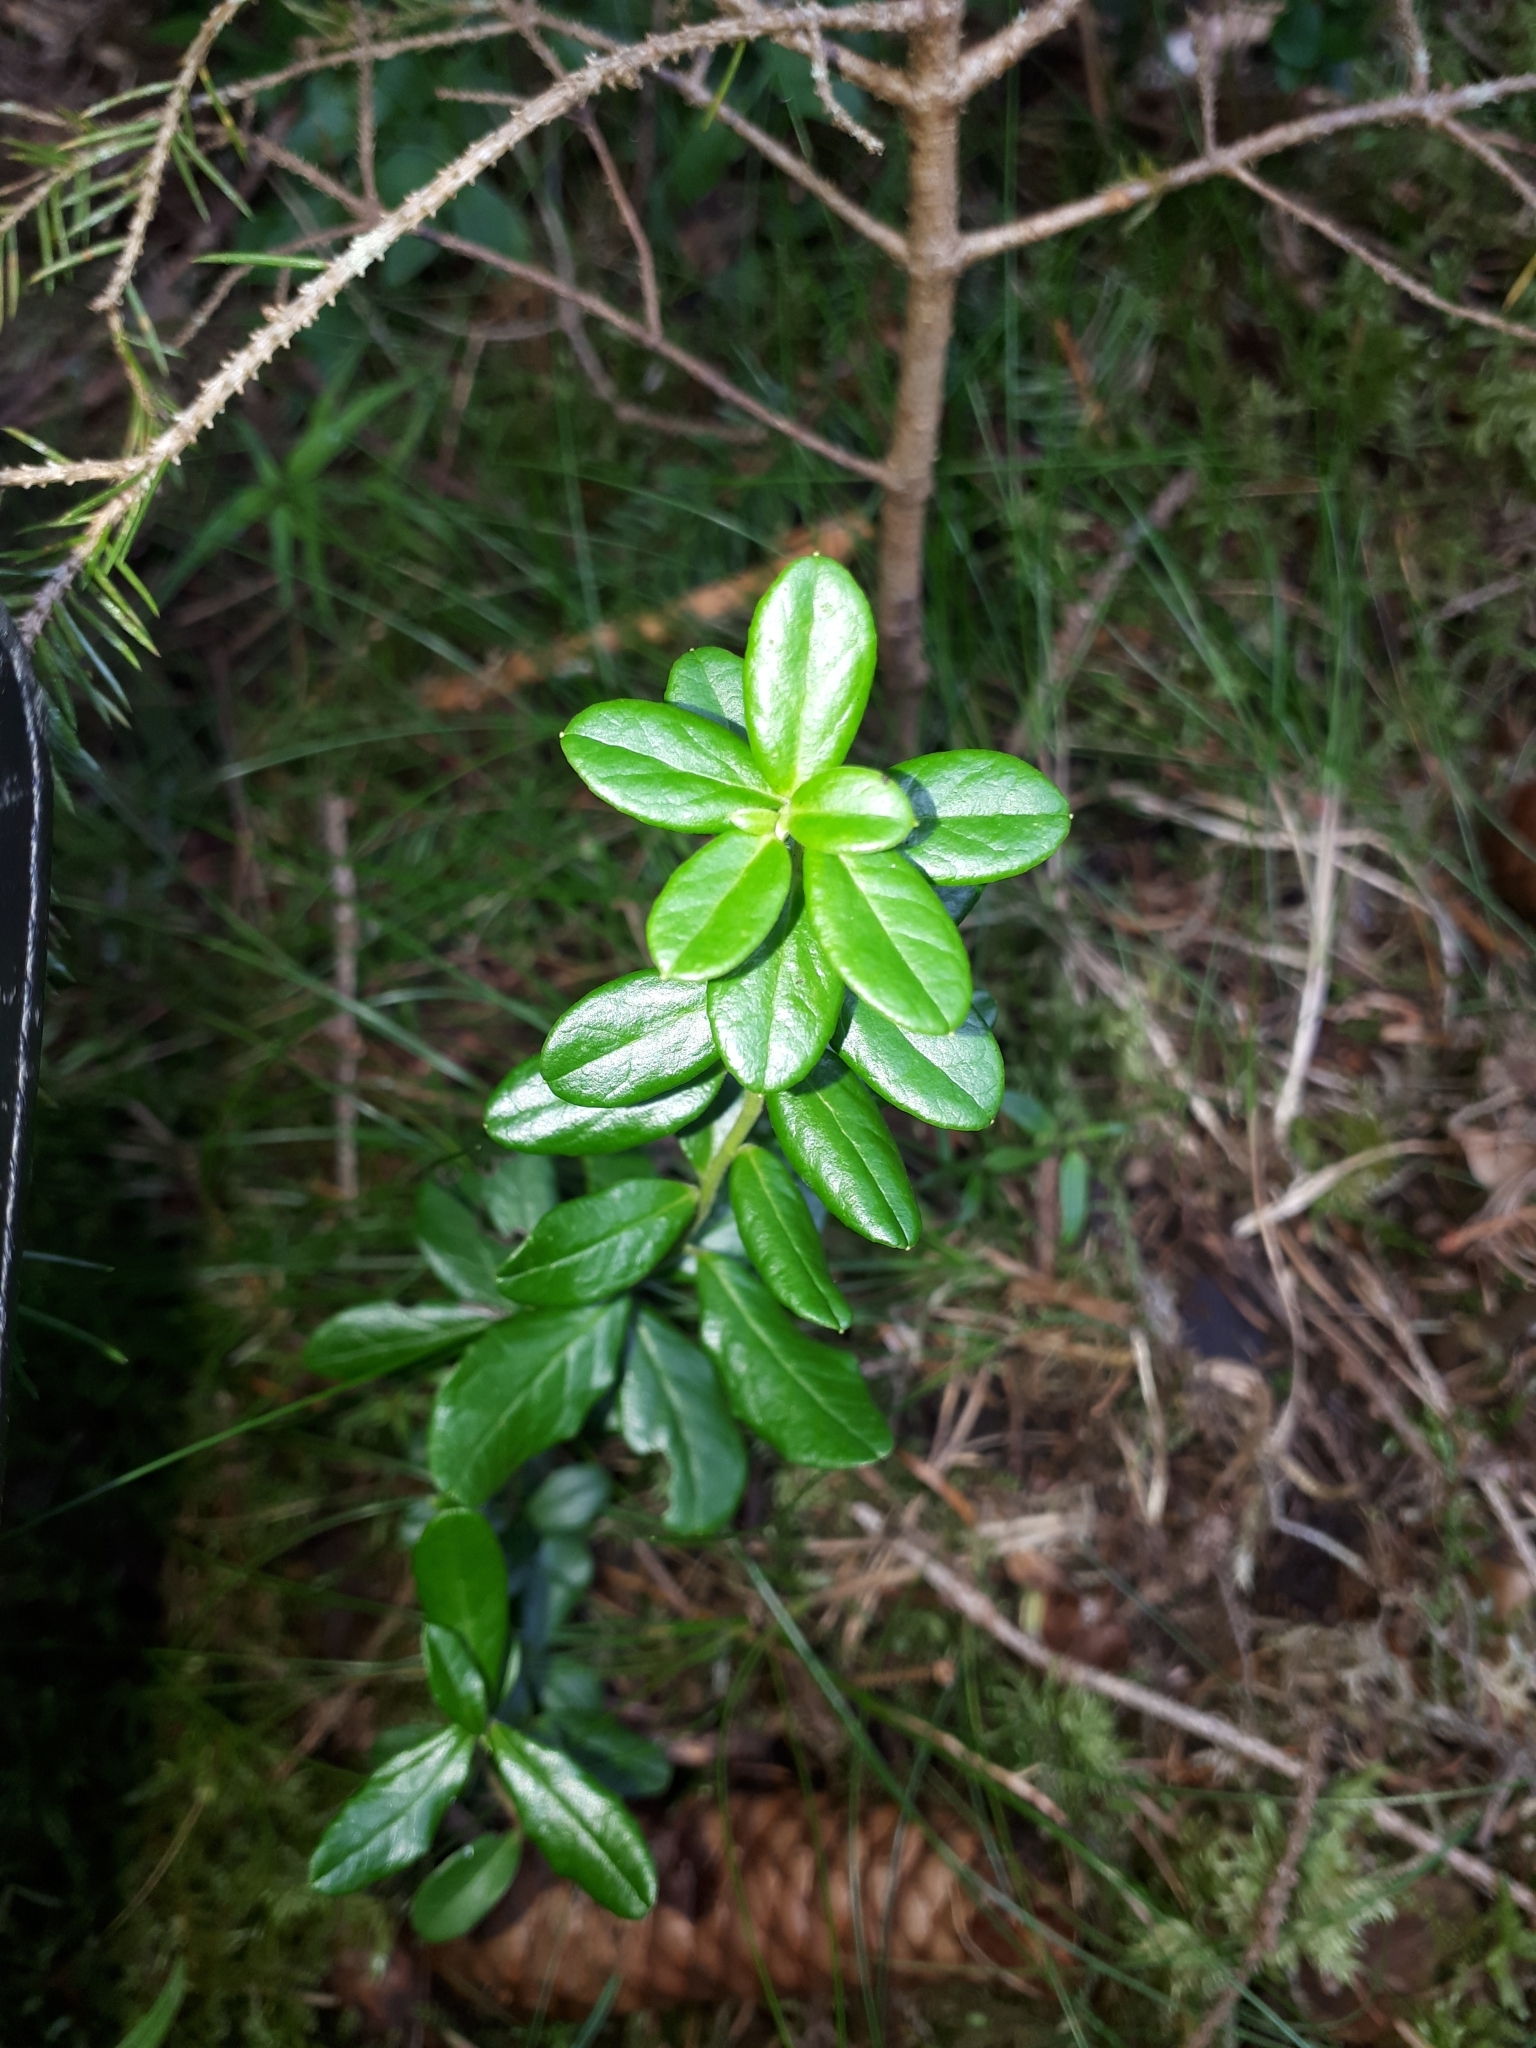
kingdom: Plantae
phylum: Tracheophyta
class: Magnoliopsida
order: Ericales
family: Ericaceae
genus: Vaccinium
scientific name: Vaccinium vitis-idaea
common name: Cowberry
